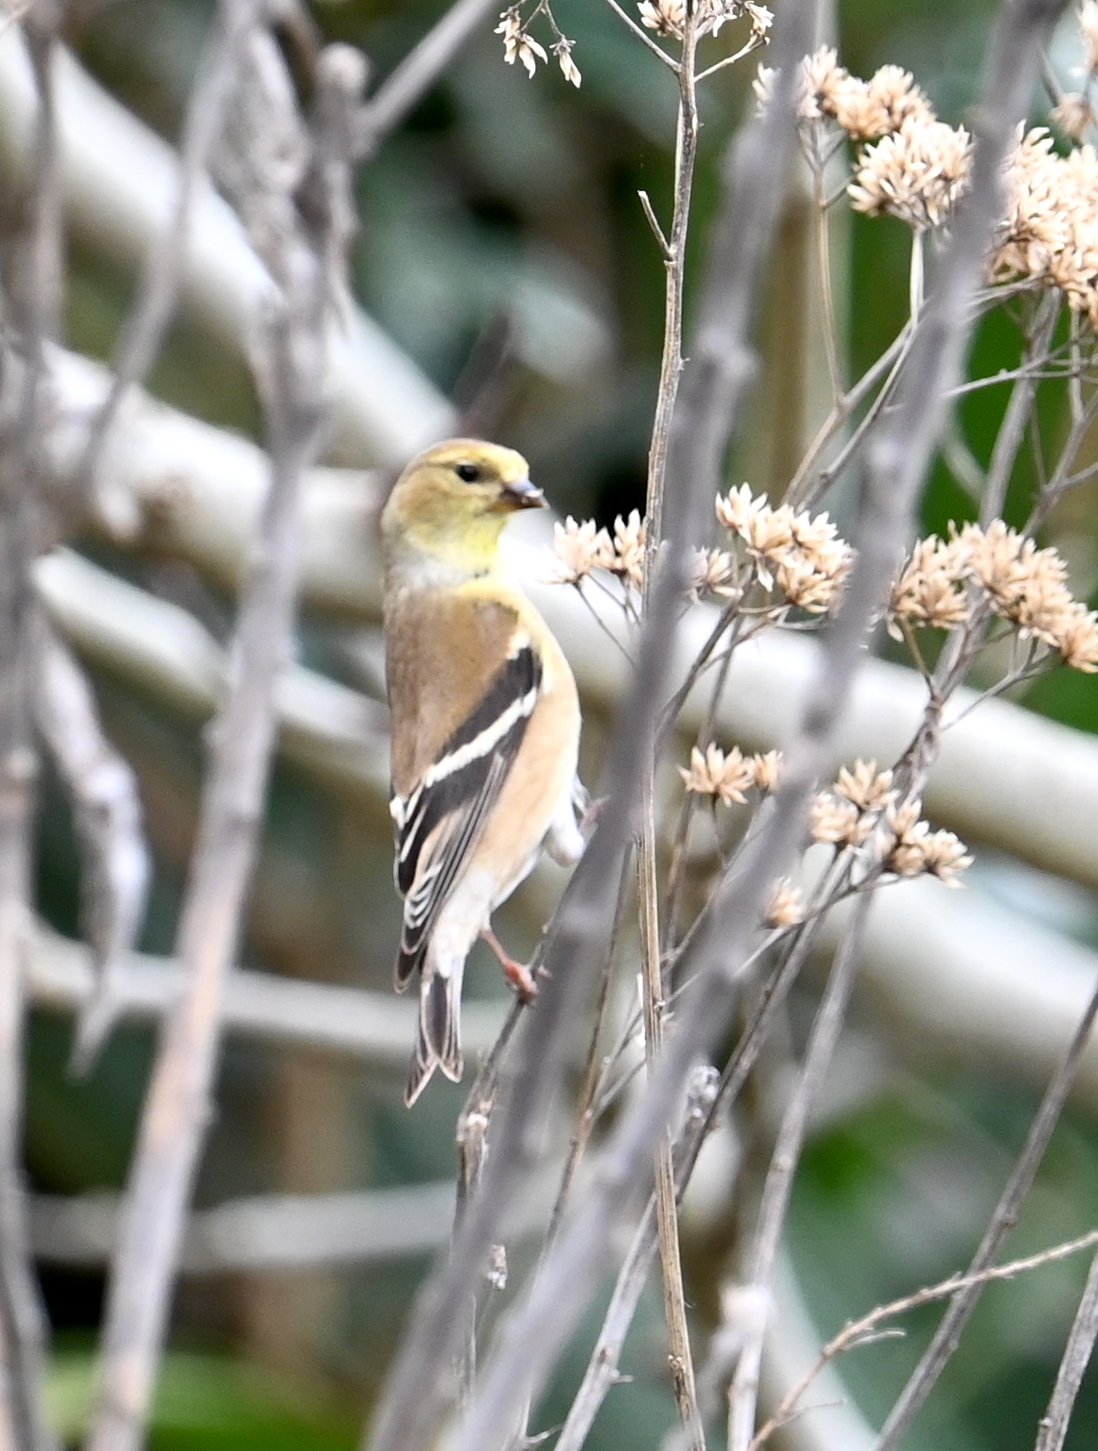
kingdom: Animalia
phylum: Chordata
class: Aves
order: Passeriformes
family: Fringillidae
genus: Spinus
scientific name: Spinus tristis
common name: American goldfinch
